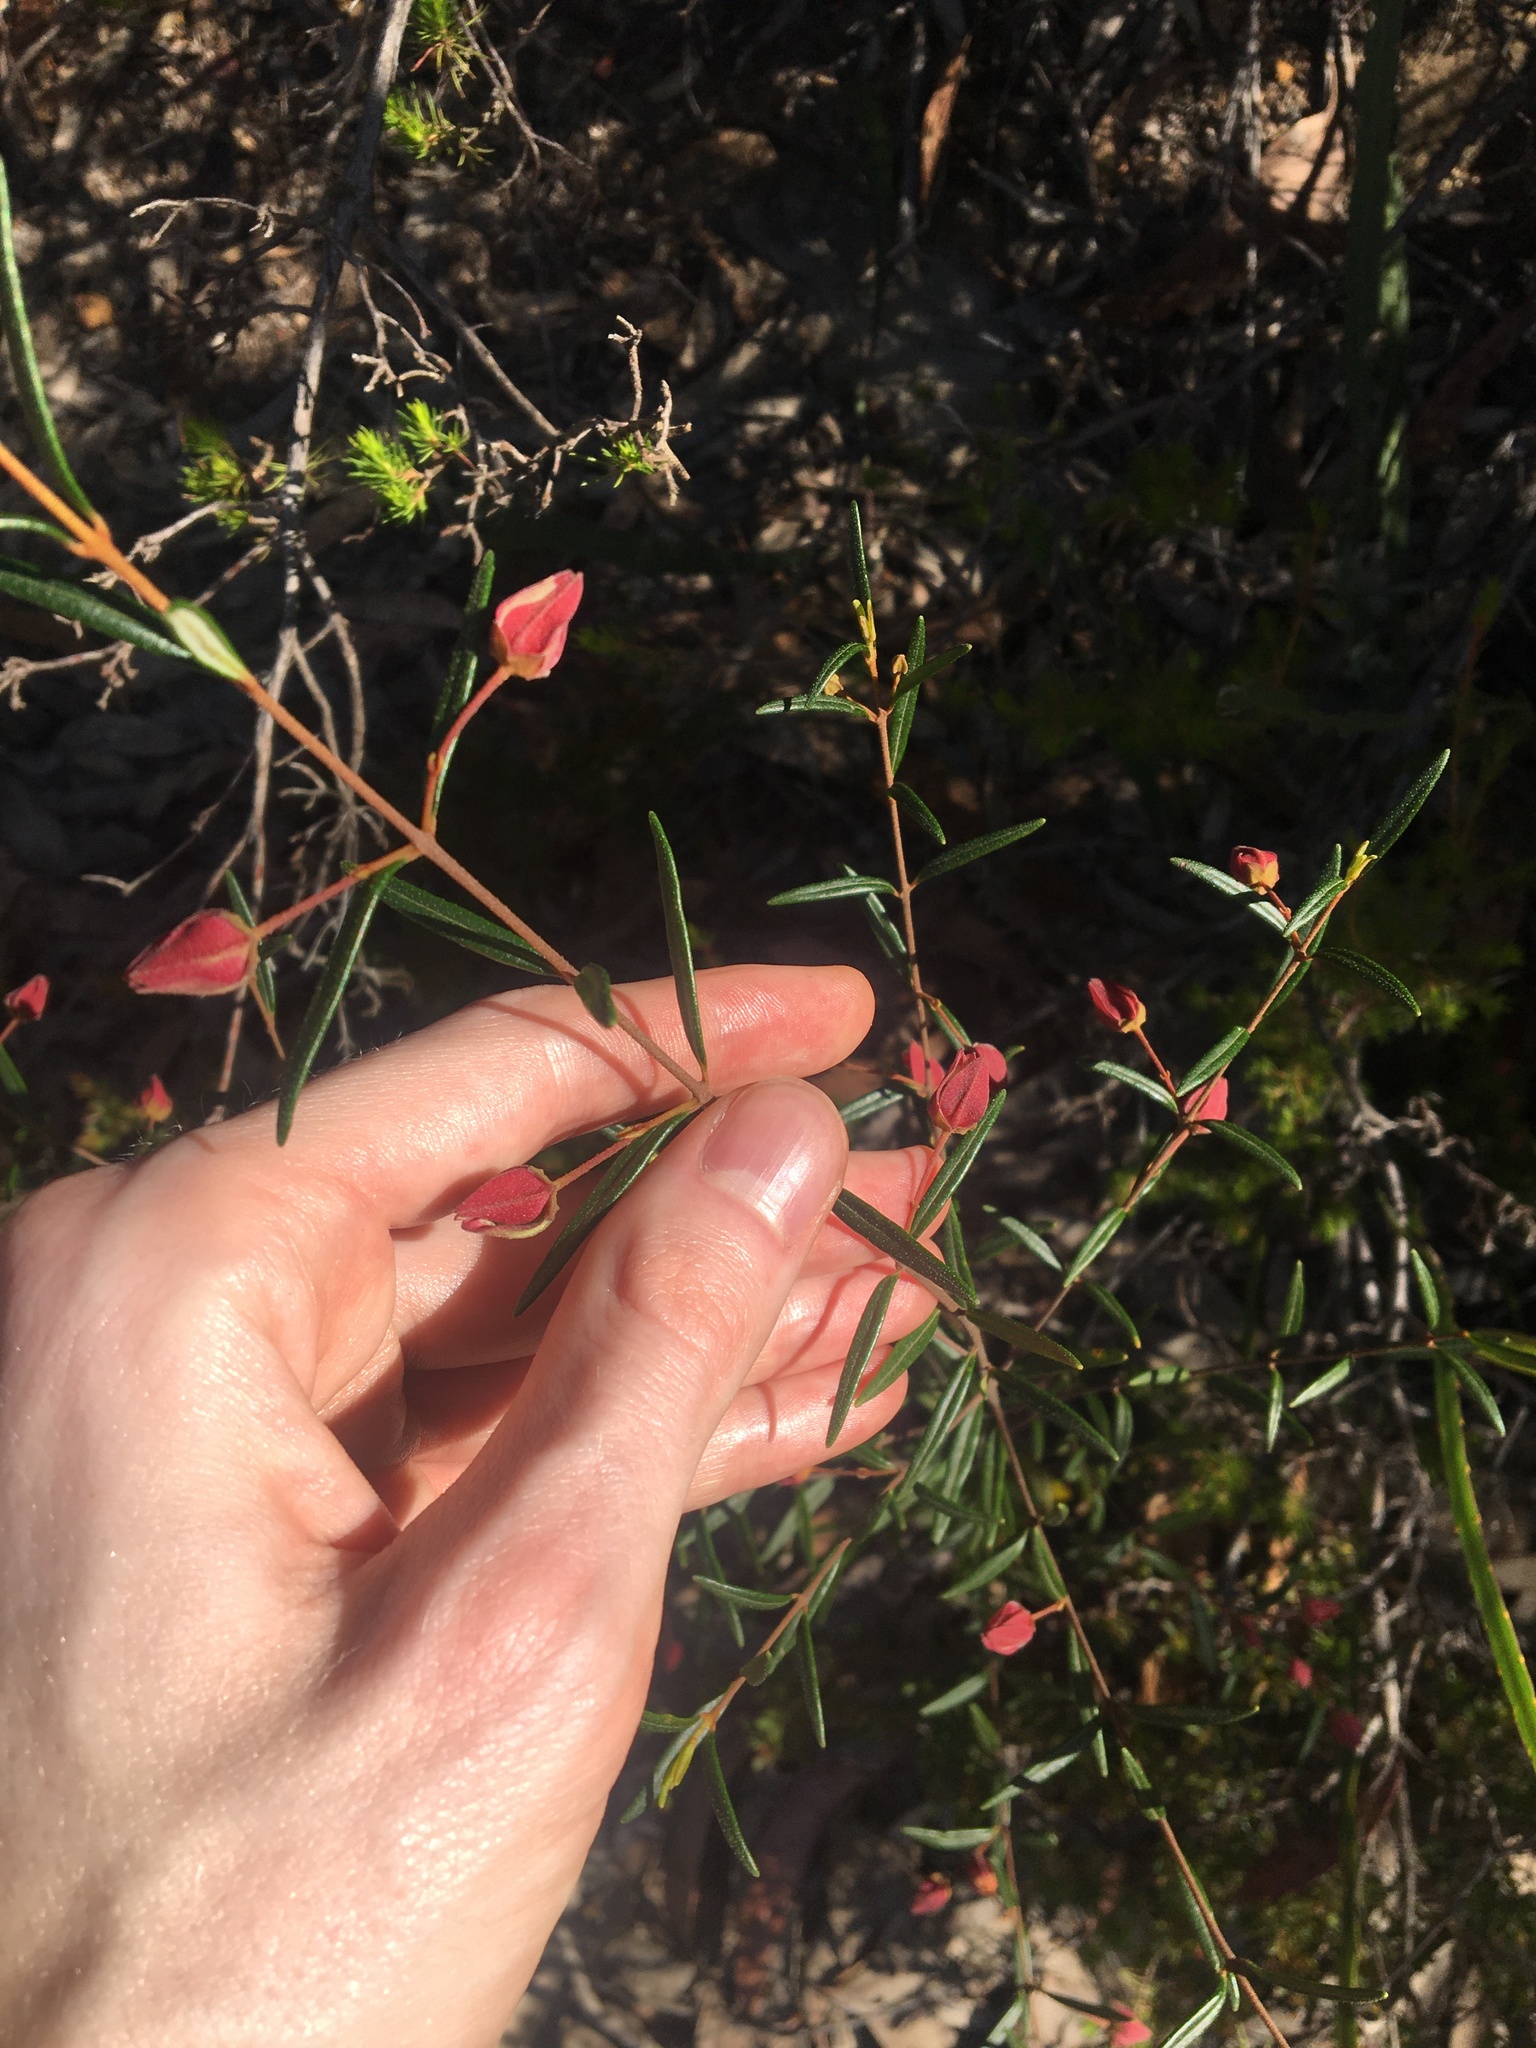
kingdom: Plantae
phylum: Tracheophyta
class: Magnoliopsida
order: Sapindales
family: Rutaceae
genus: Boronia
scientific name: Boronia ledifolia
